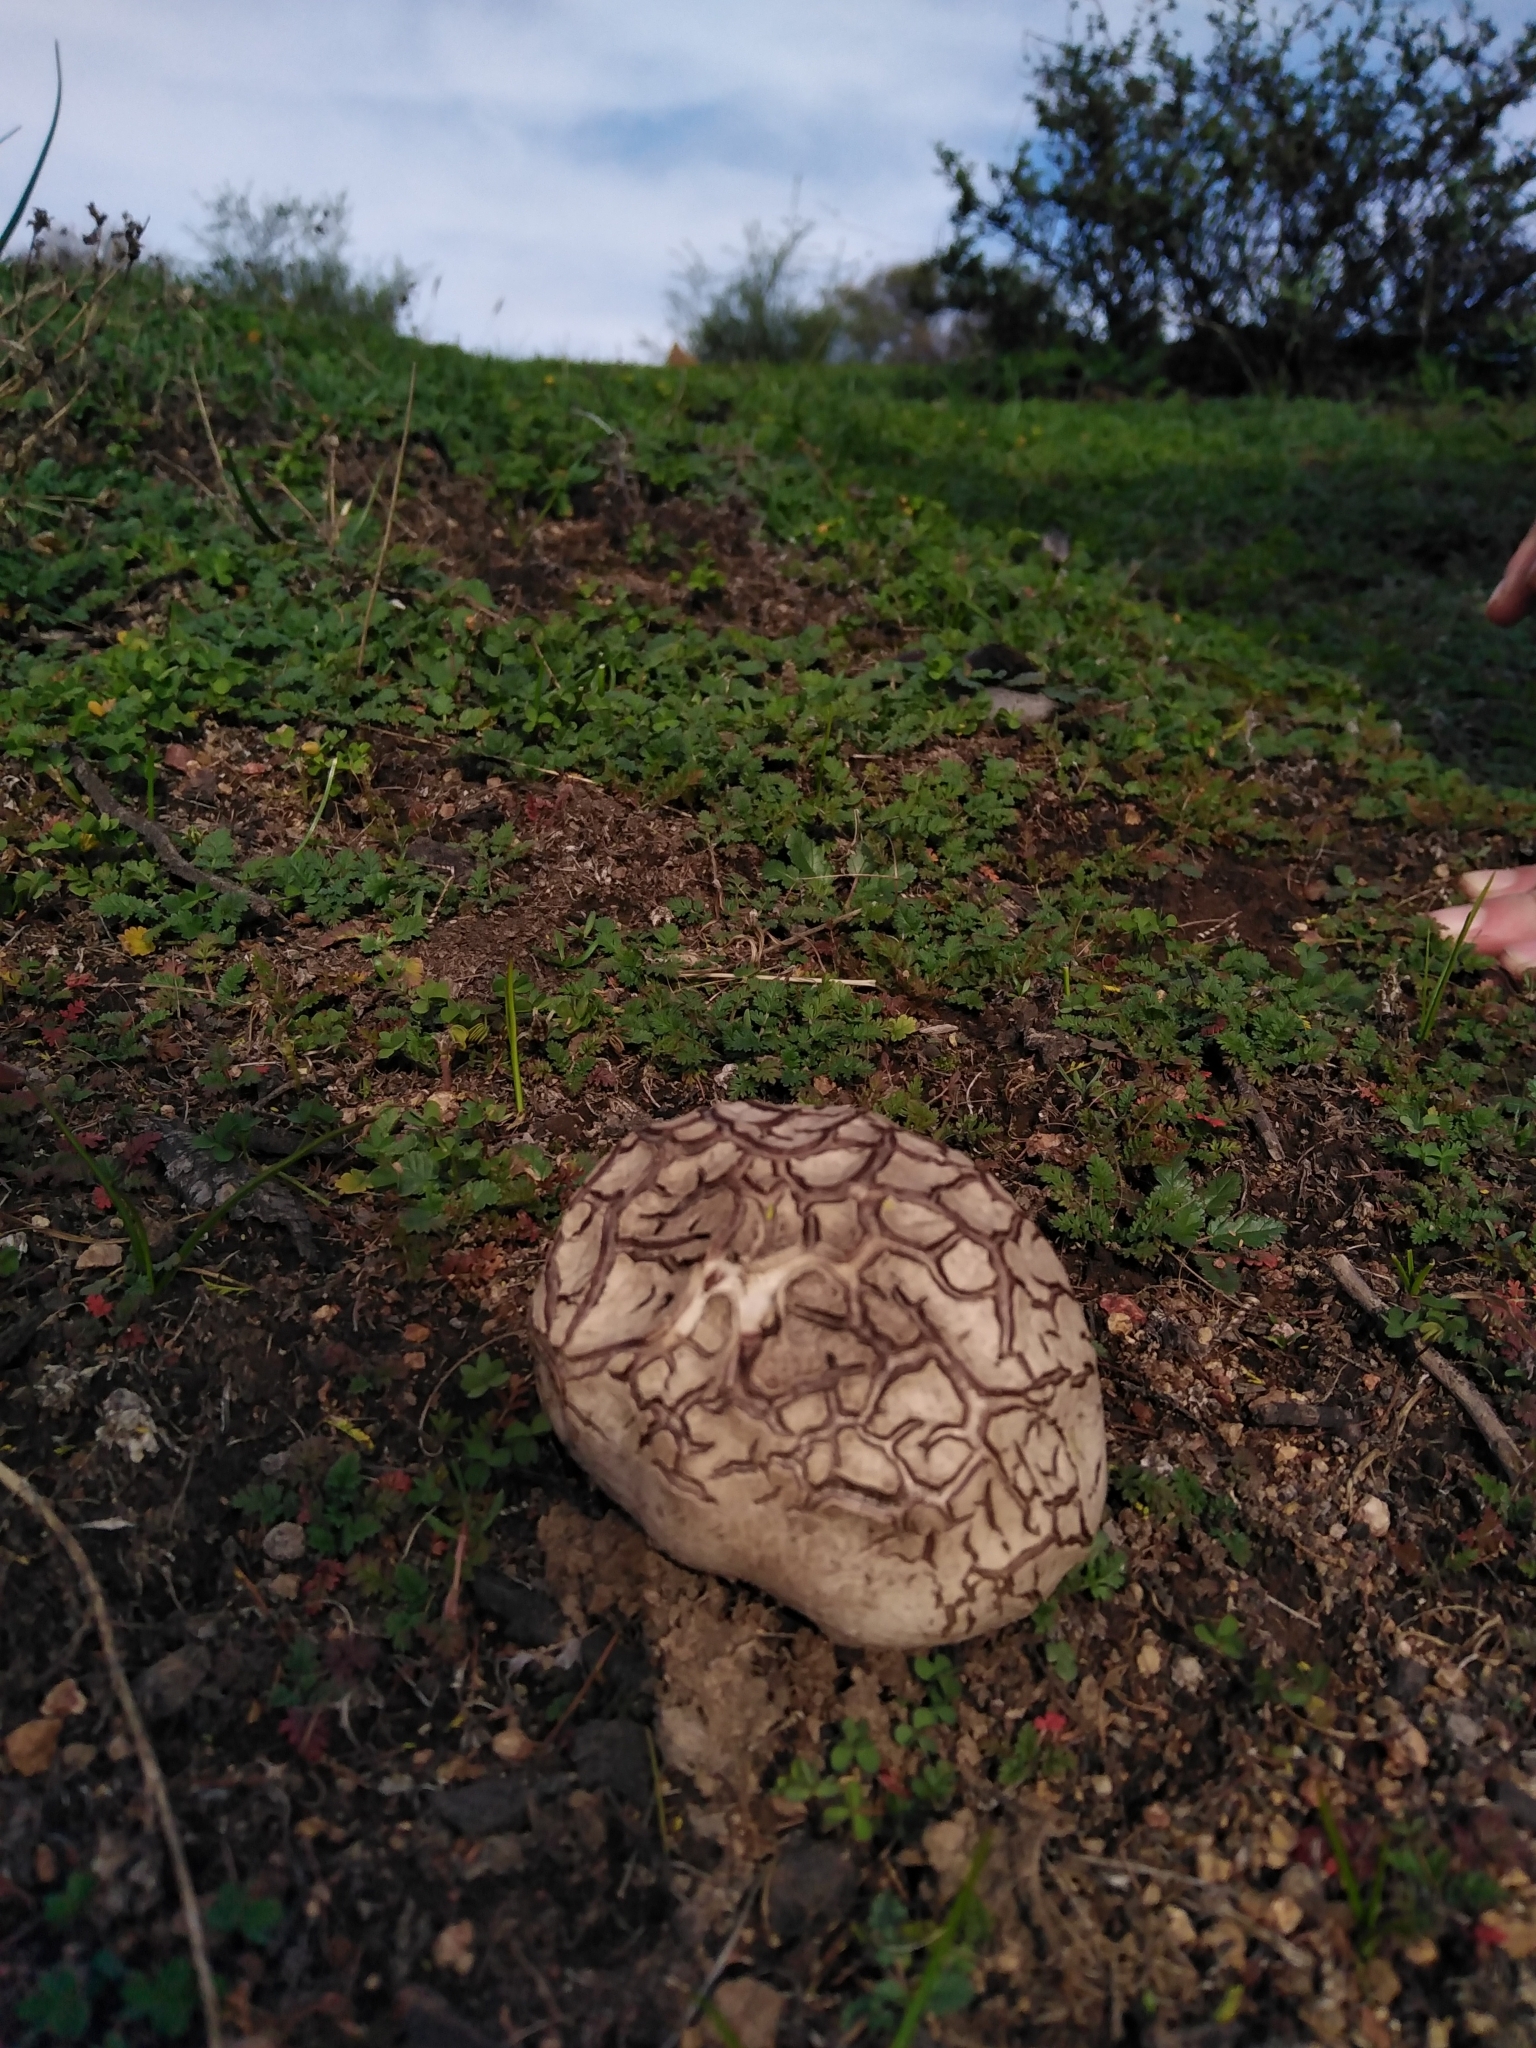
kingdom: Fungi
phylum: Basidiomycota
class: Agaricomycetes
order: Agaricales
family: Lycoperdaceae
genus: Calvatia
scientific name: Calvatia cyathiformis
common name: Purple-spored puffball
